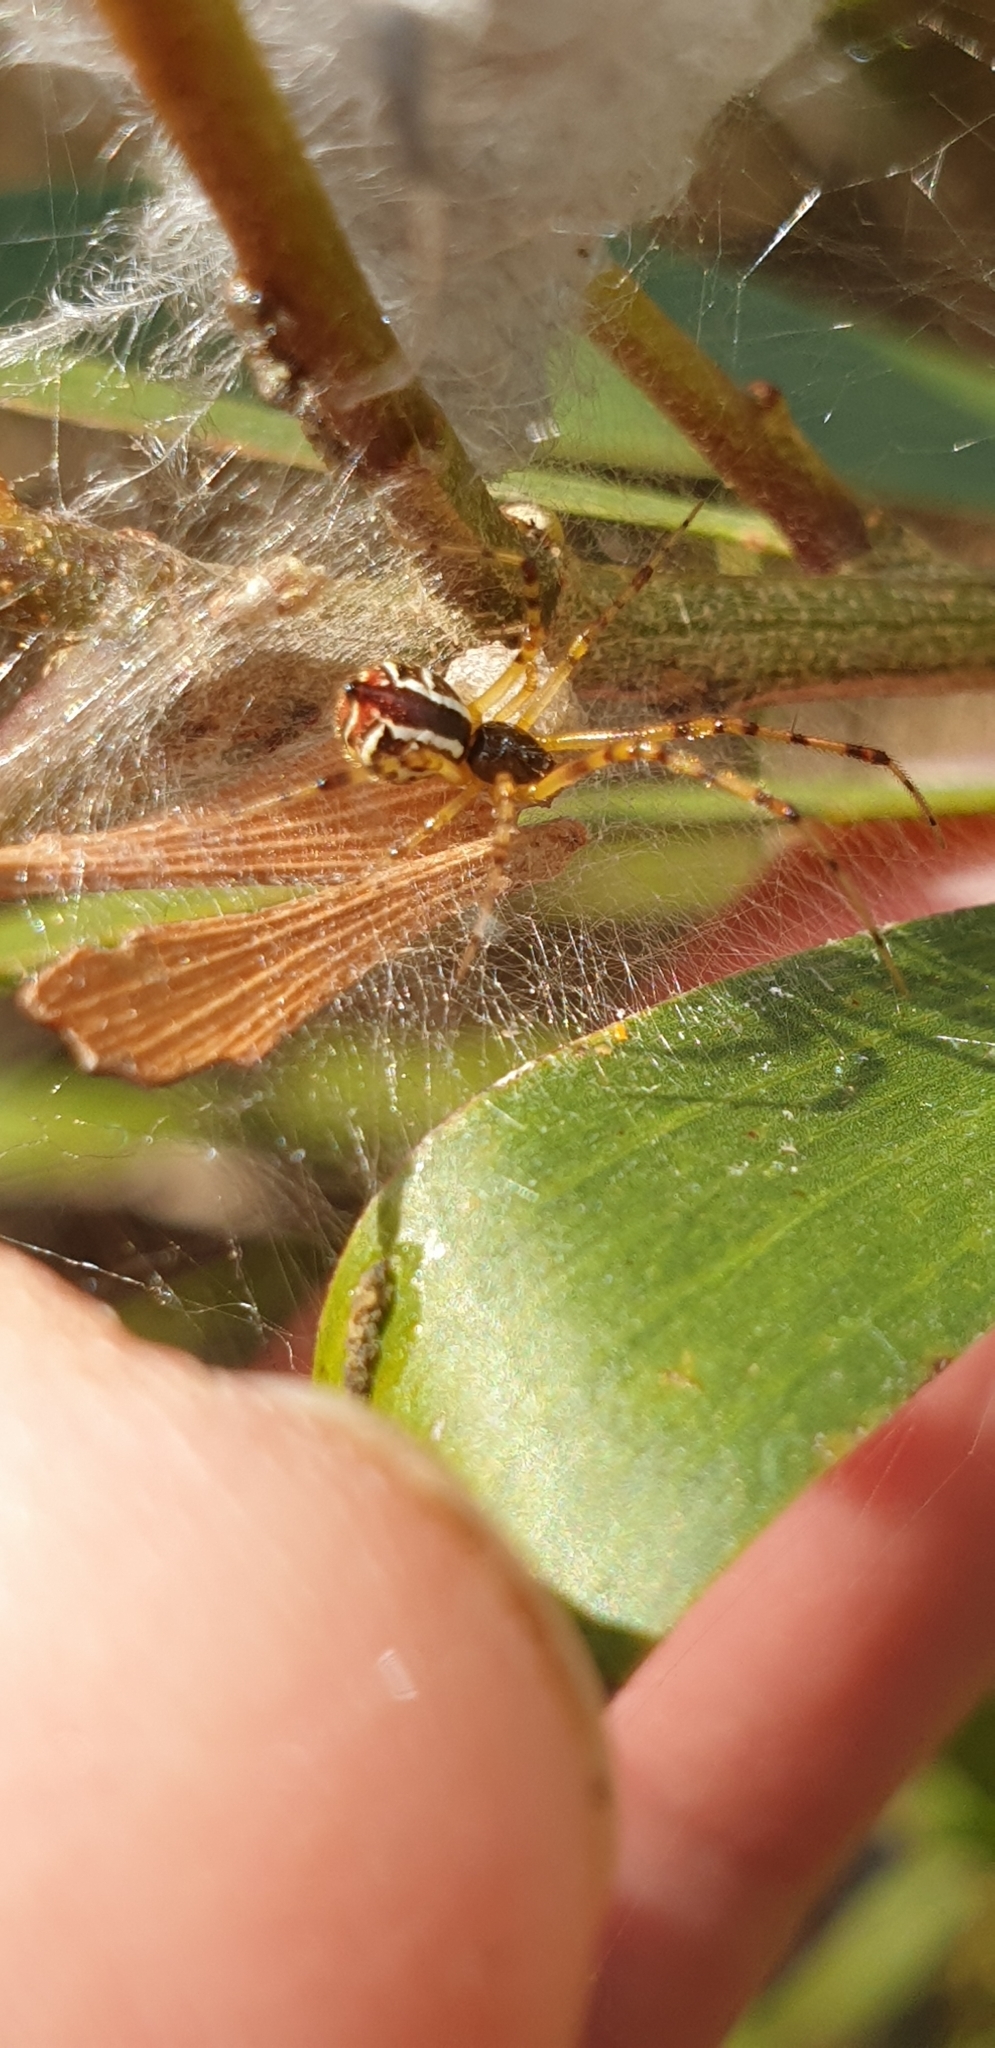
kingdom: Animalia
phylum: Arthropoda
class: Arachnida
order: Araneae
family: Theridiidae
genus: Theridion
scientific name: Theridion pyramidale
